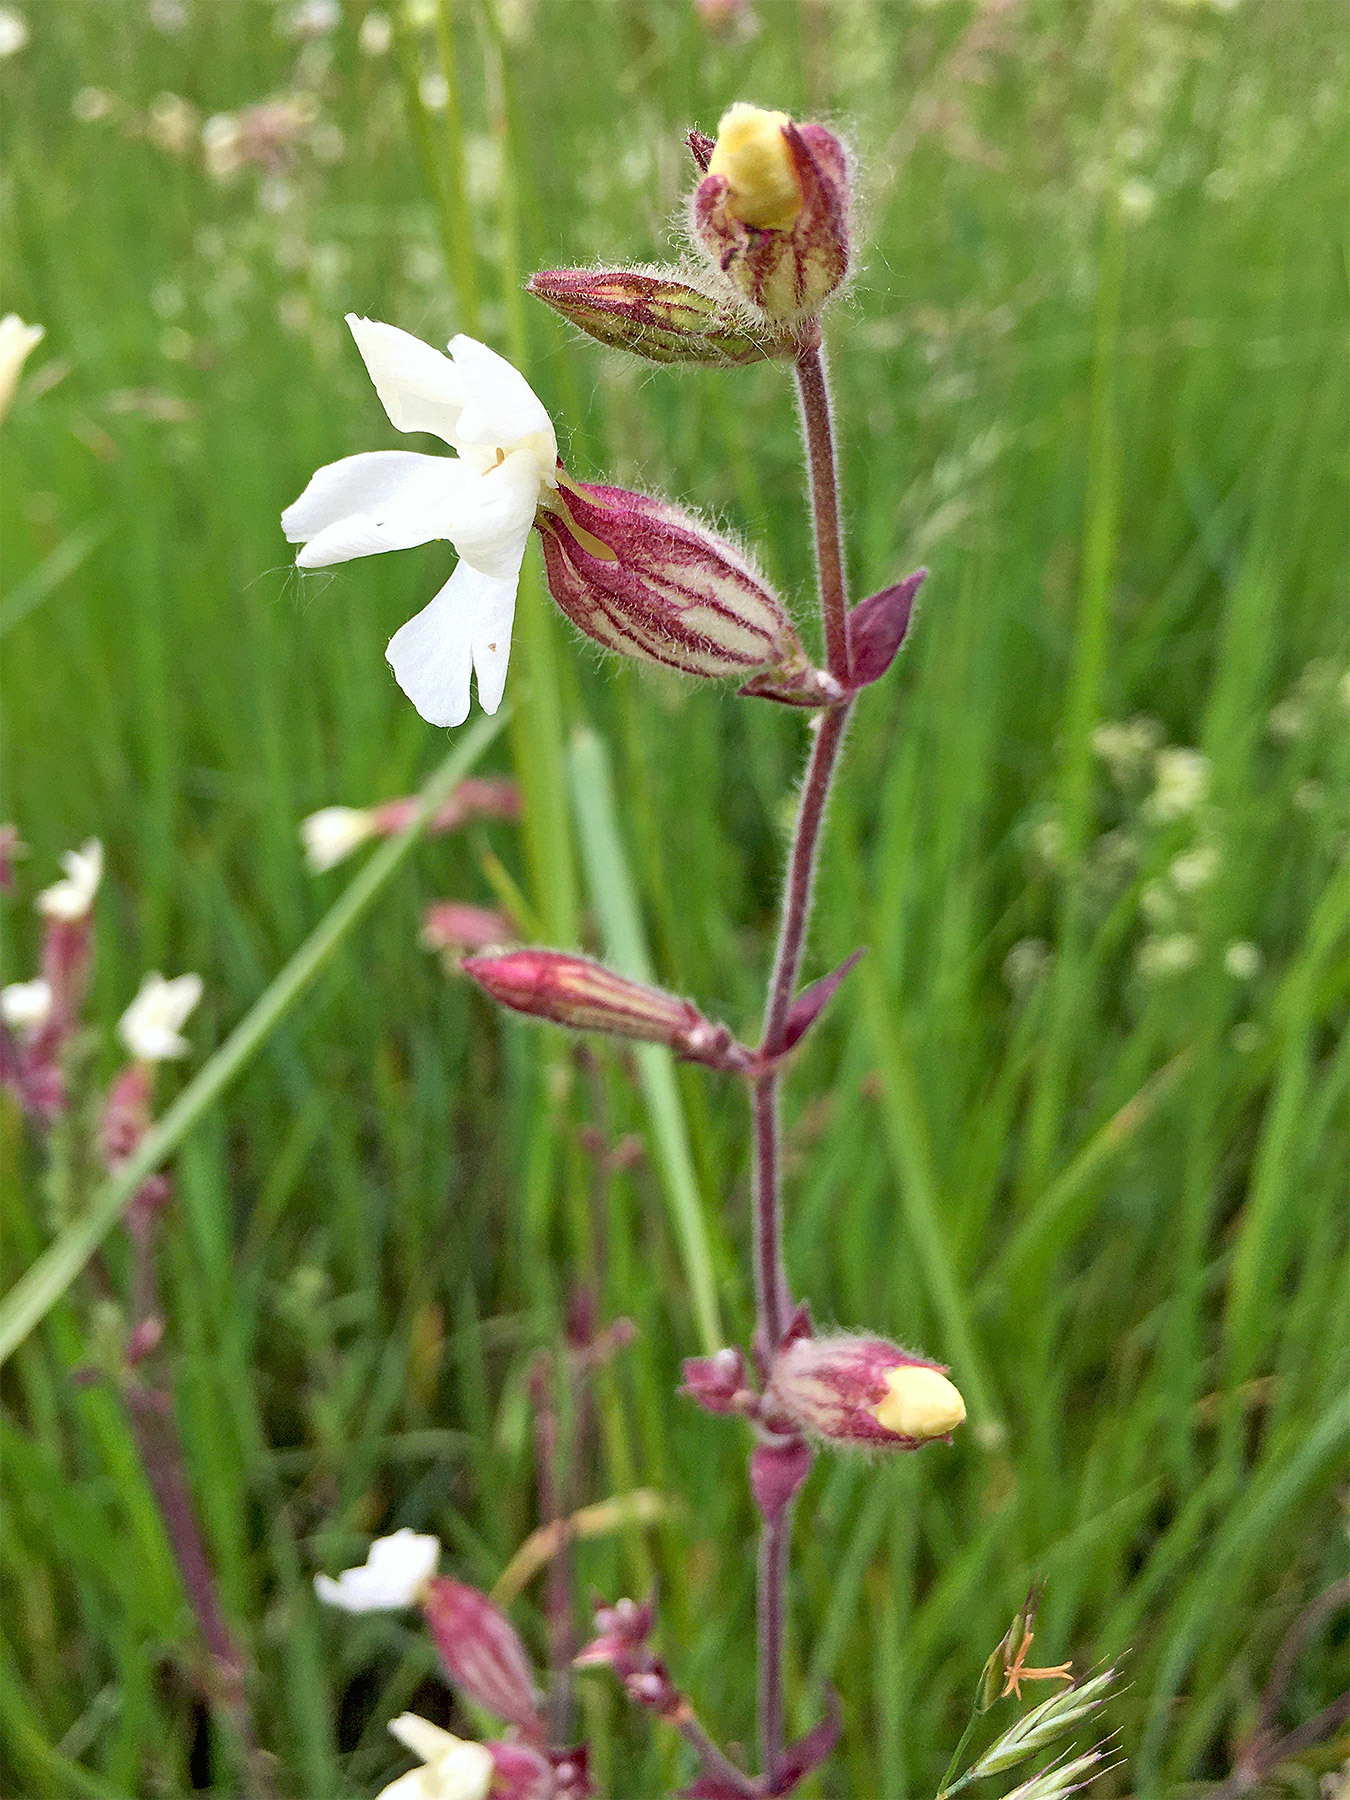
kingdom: Plantae
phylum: Tracheophyta
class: Magnoliopsida
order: Caryophyllales
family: Caryophyllaceae
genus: Silene
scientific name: Silene latifolia
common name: White campion
